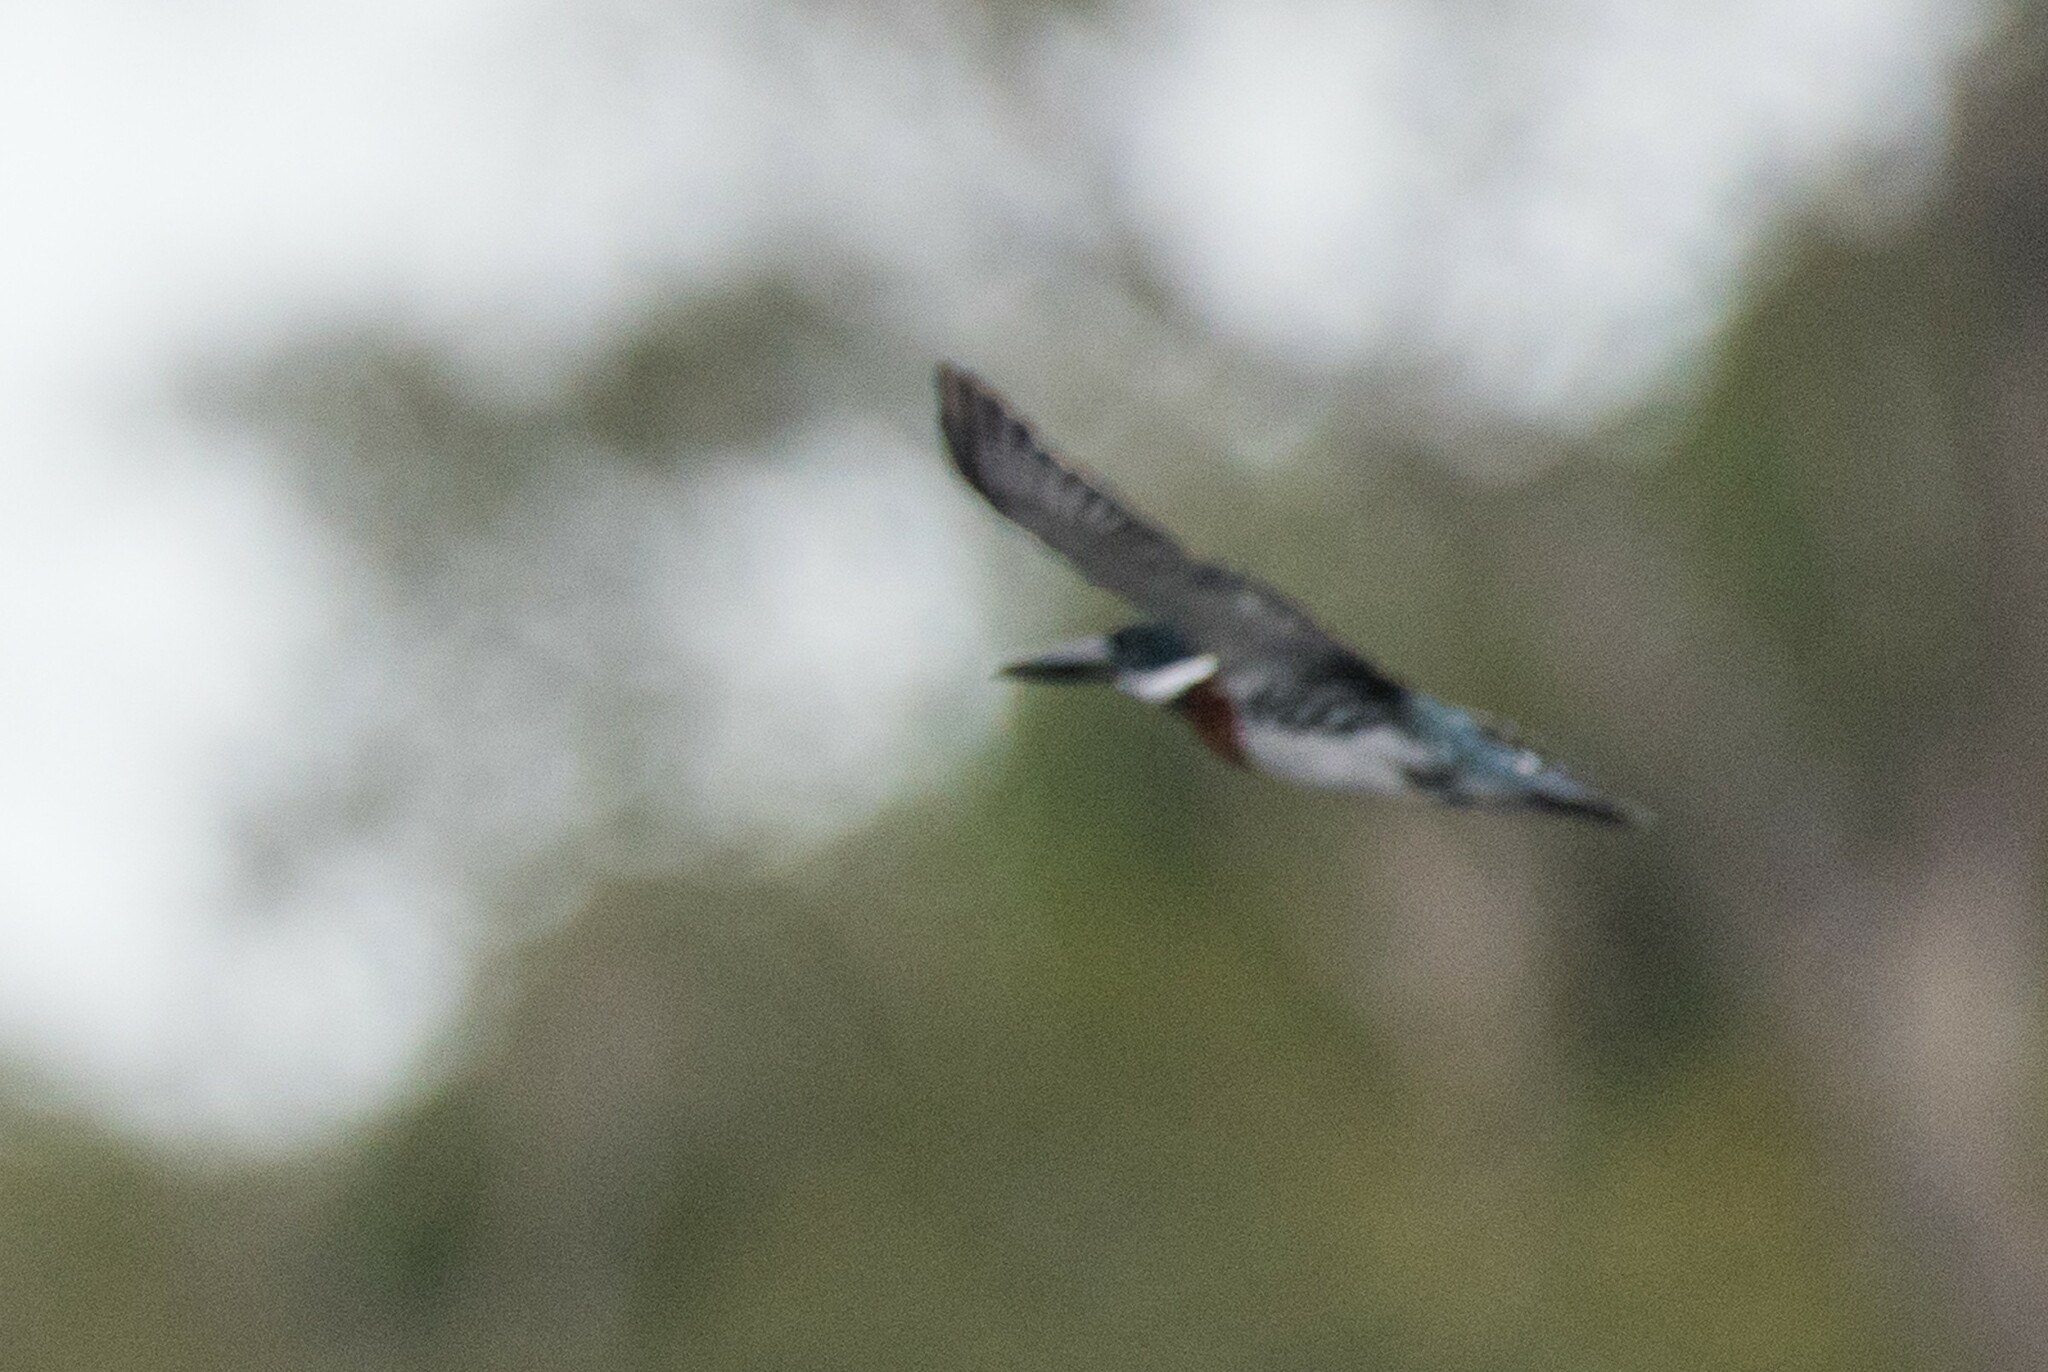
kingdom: Animalia
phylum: Chordata
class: Aves
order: Coraciiformes
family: Alcedinidae
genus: Chloroceryle
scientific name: Chloroceryle amazona
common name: Amazon kingfisher
